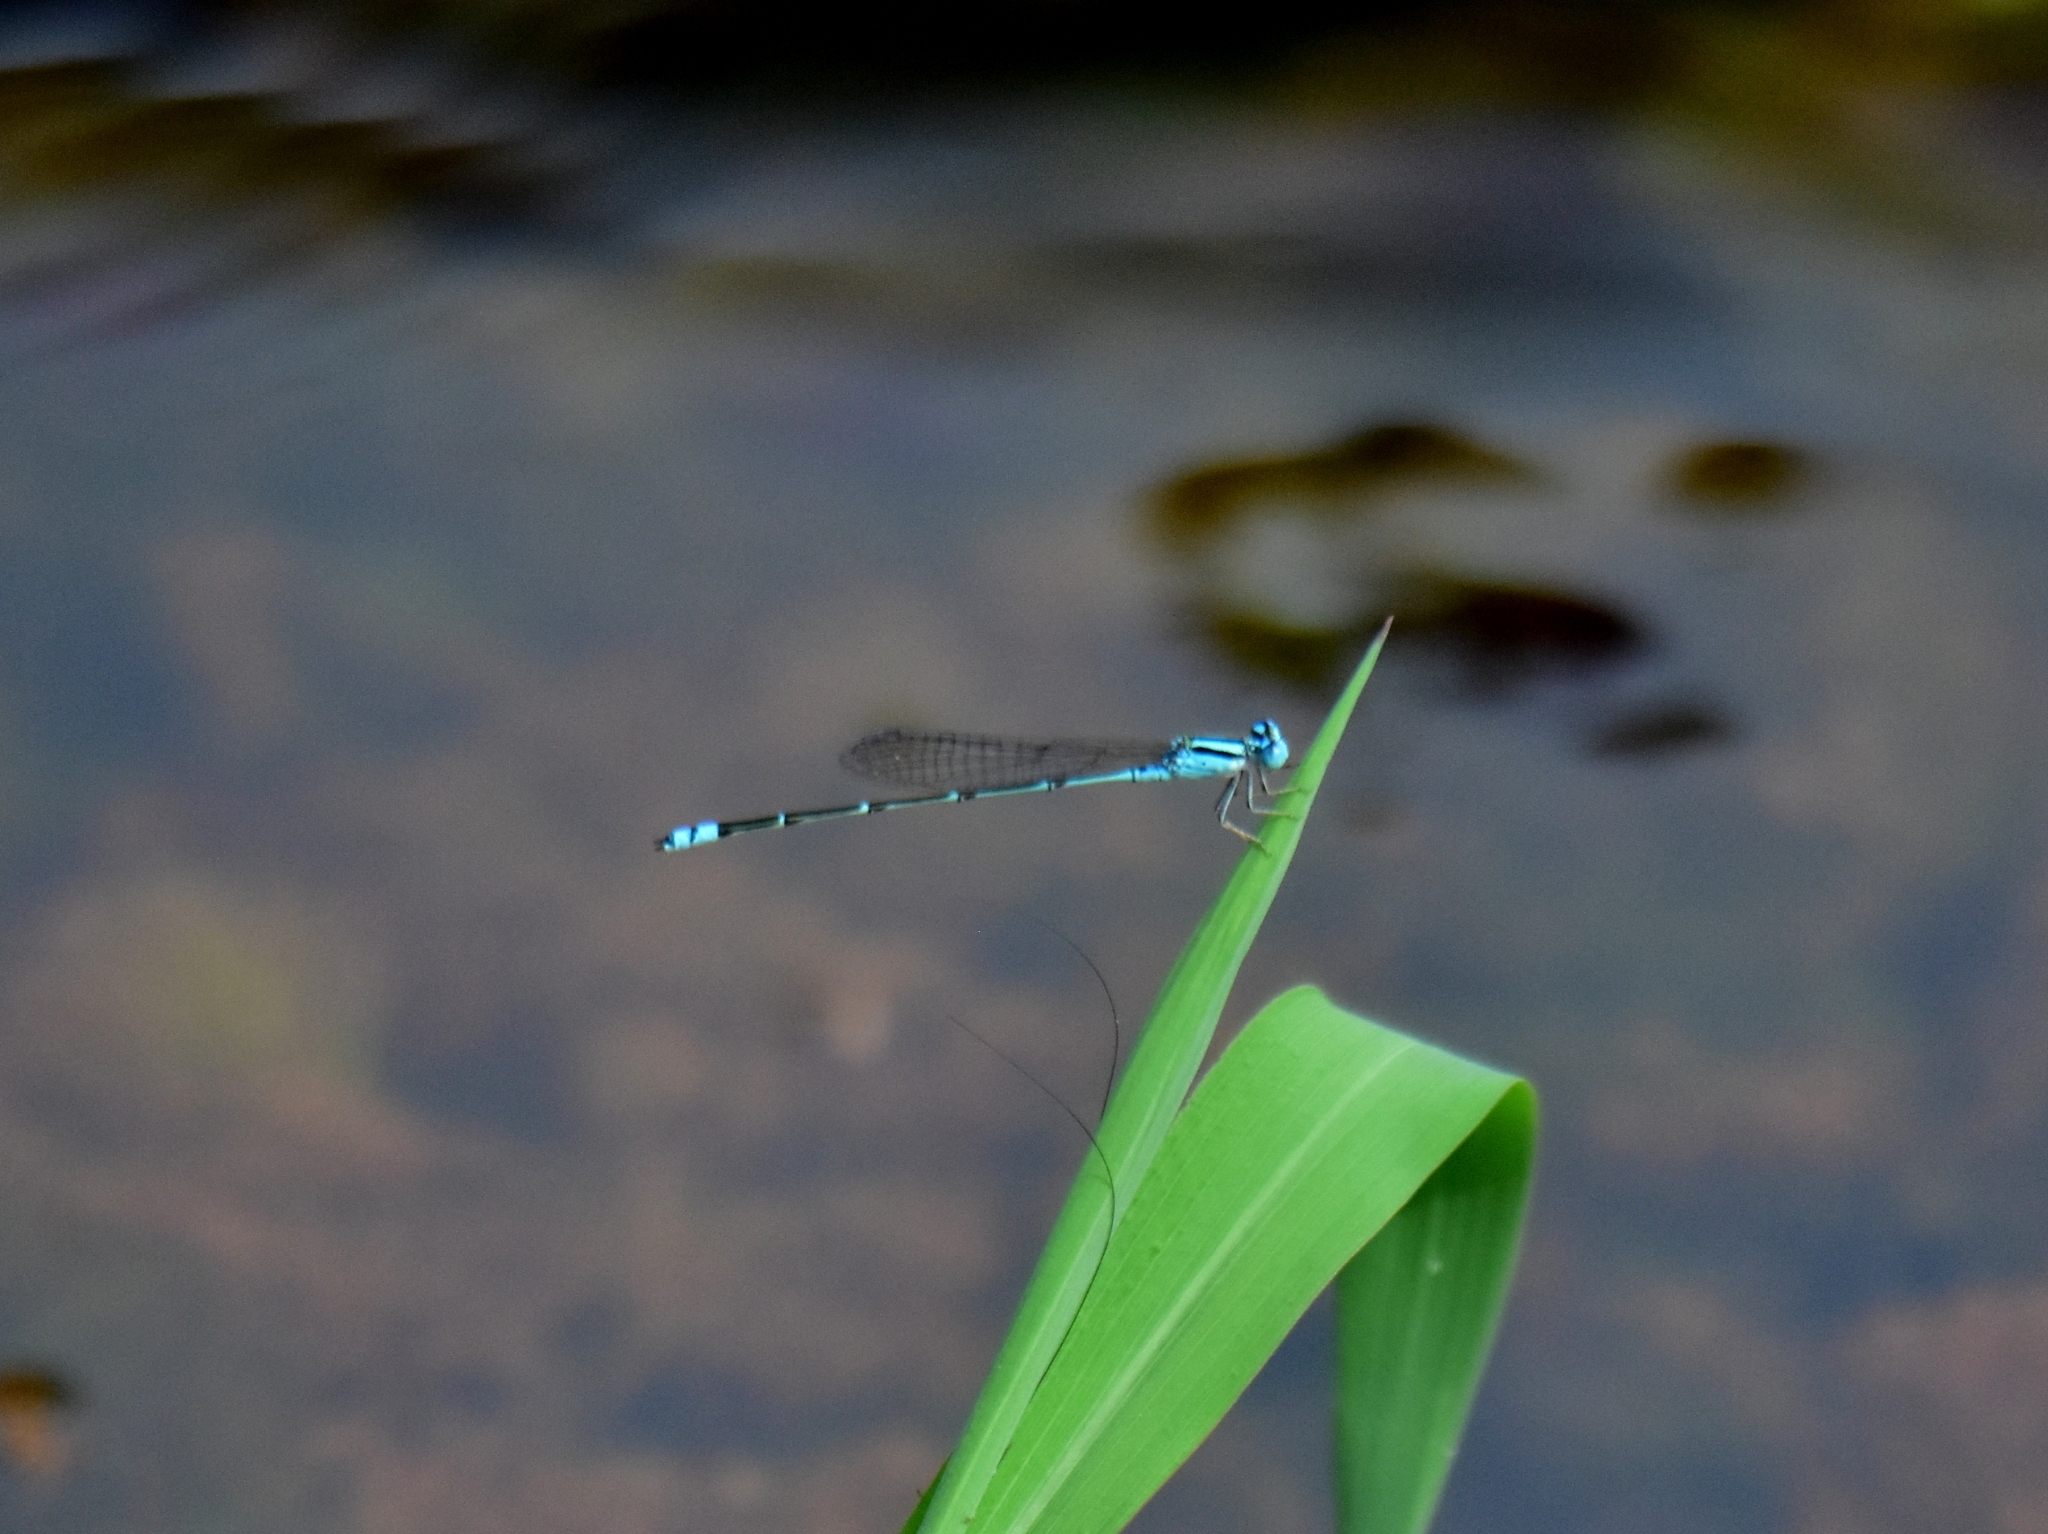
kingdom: Animalia
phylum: Arthropoda
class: Insecta
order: Odonata
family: Coenagrionidae
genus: Pseudagrion
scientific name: Pseudagrion microcephalum
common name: Blue riverdamsel
